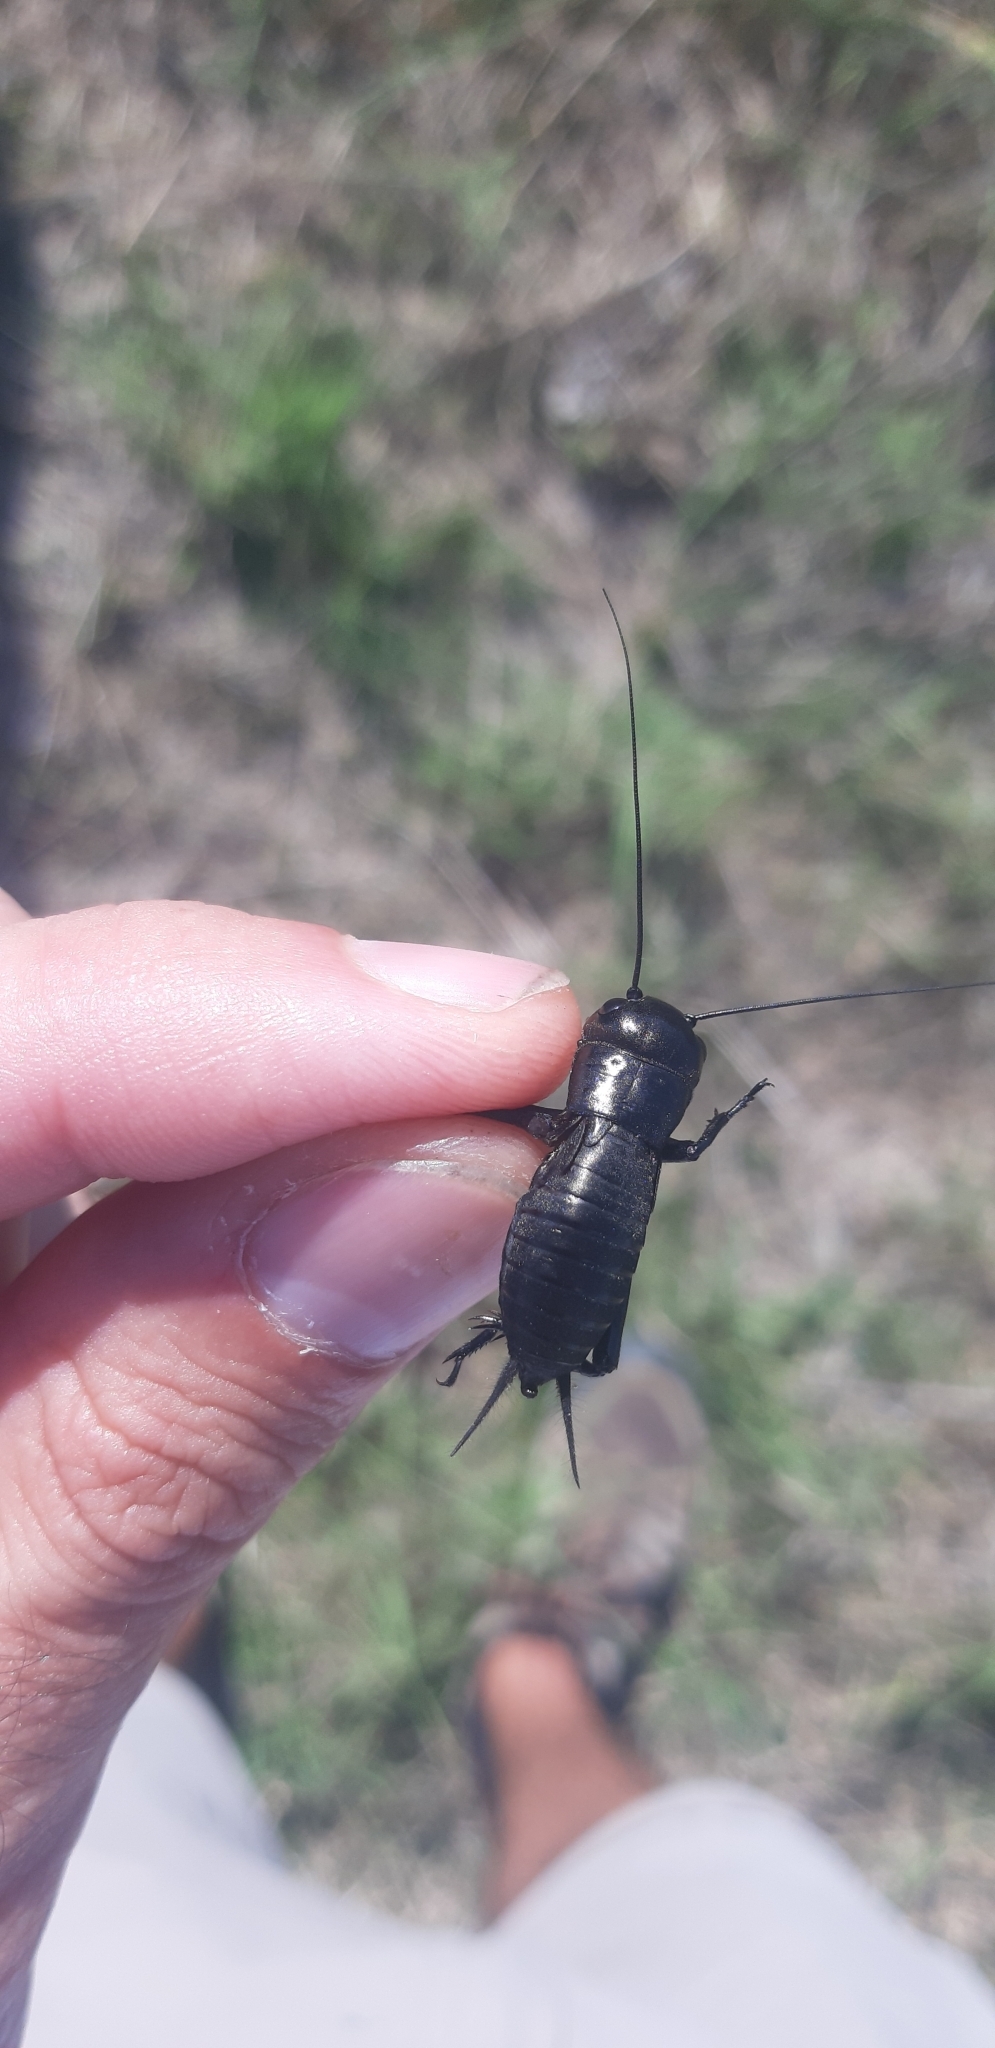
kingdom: Animalia
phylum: Arthropoda
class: Insecta
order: Orthoptera
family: Gryllidae
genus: Gryllus
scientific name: Gryllus campestris
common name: Field cricket
